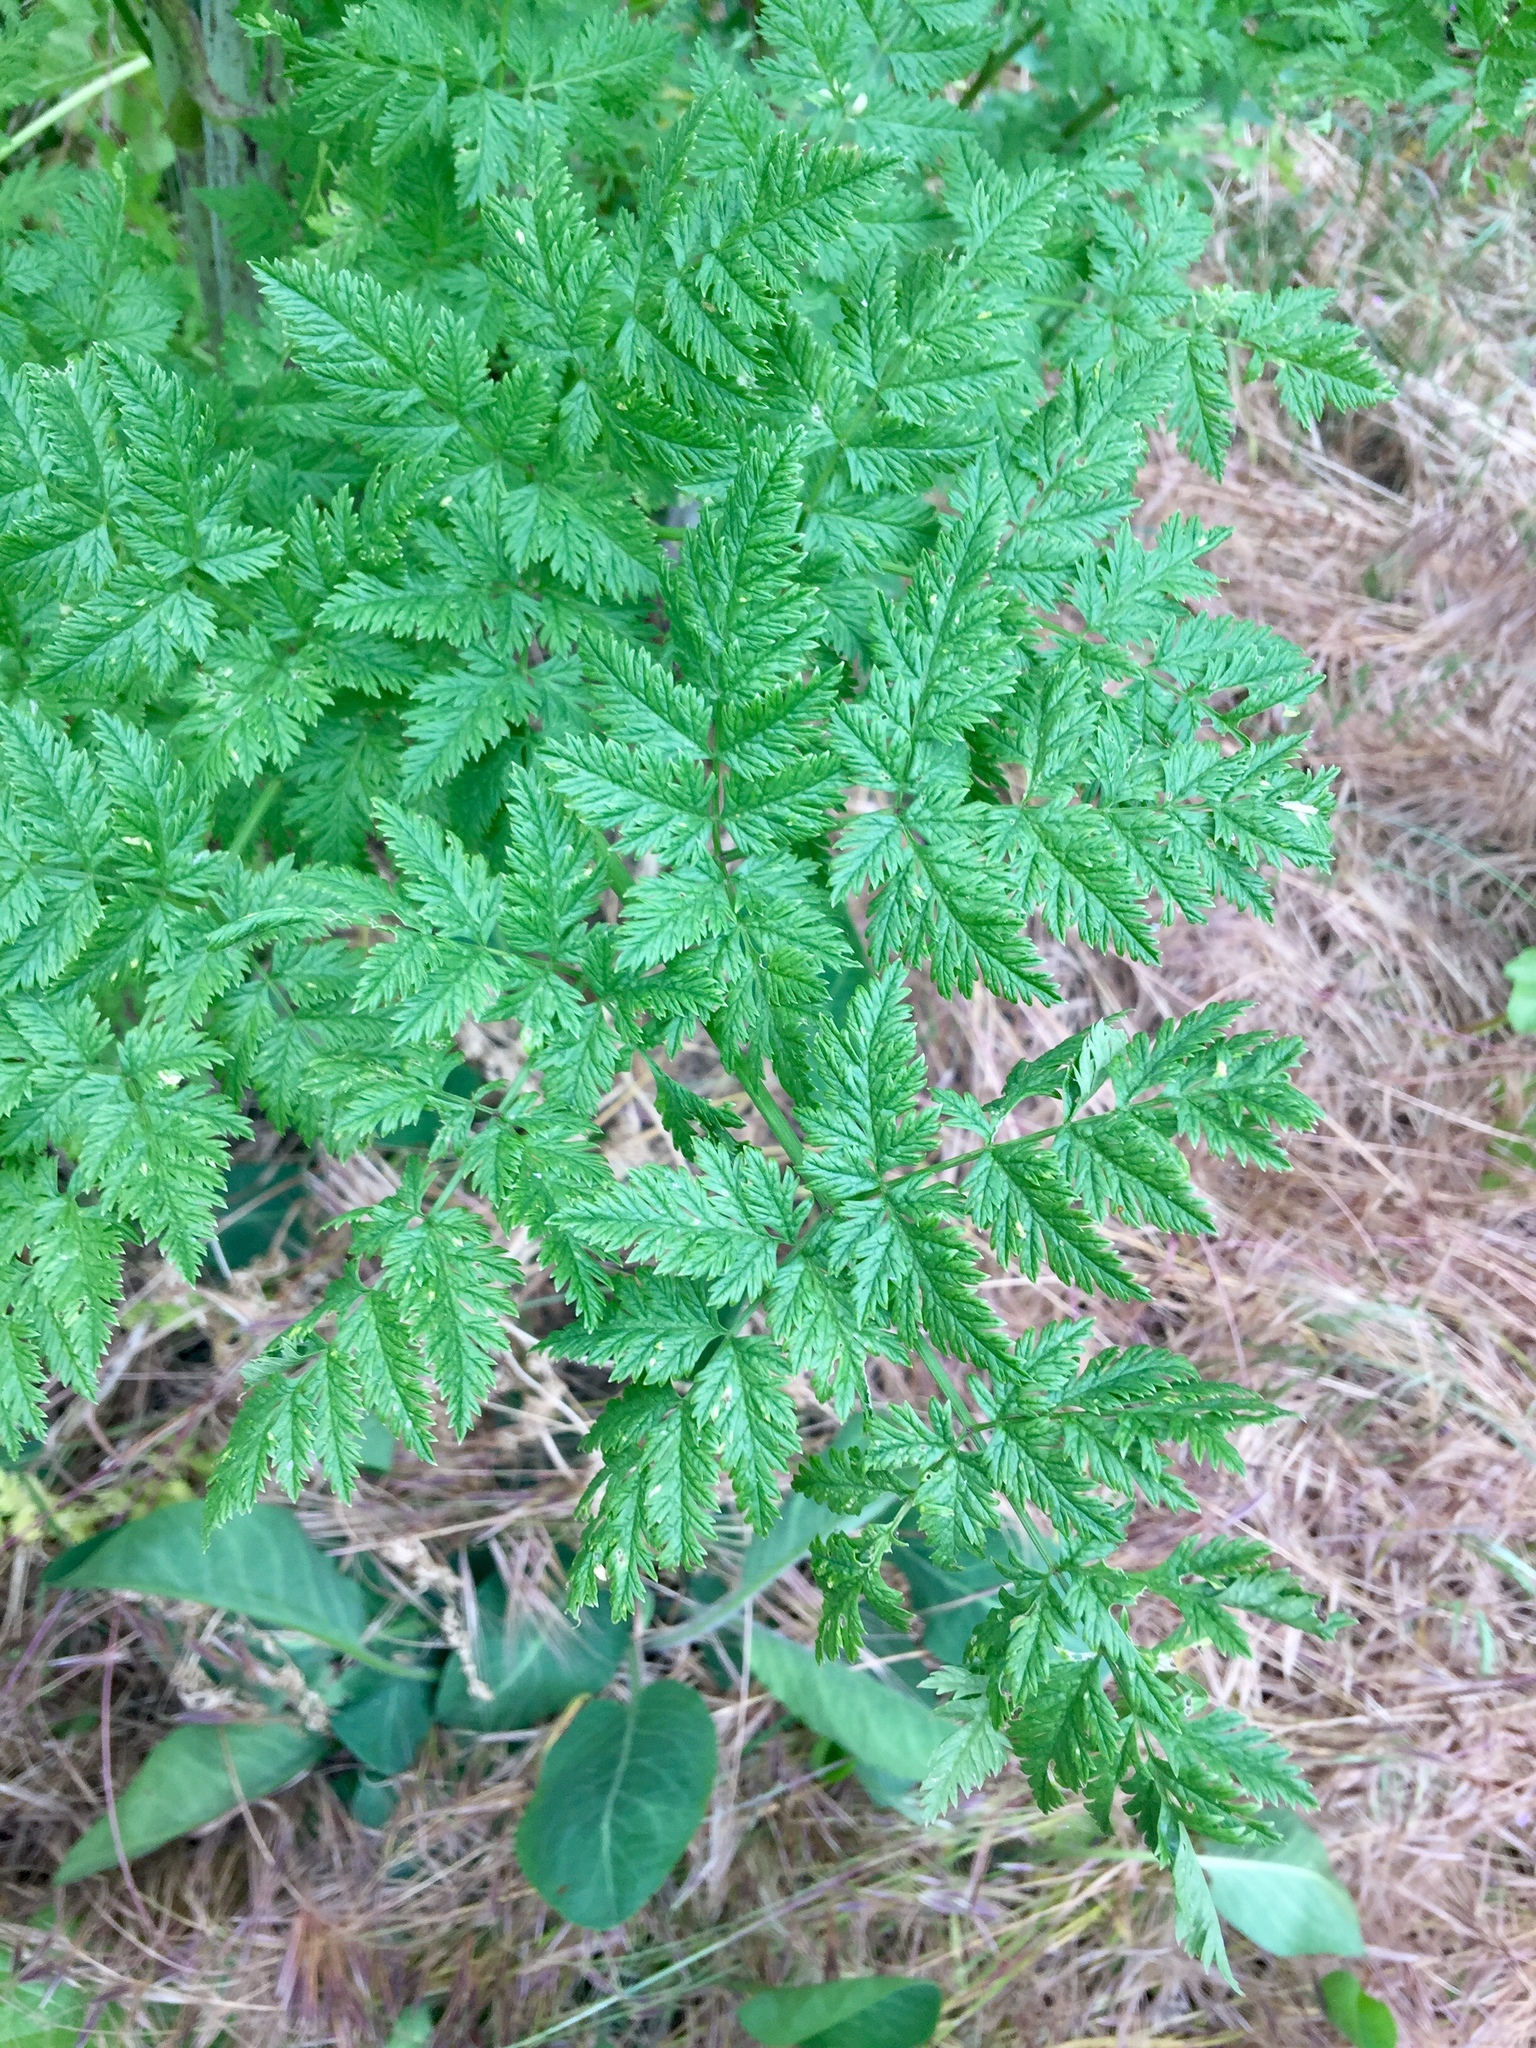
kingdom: Plantae
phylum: Tracheophyta
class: Magnoliopsida
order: Apiales
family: Apiaceae
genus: Conium
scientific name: Conium maculatum
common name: Hemlock
